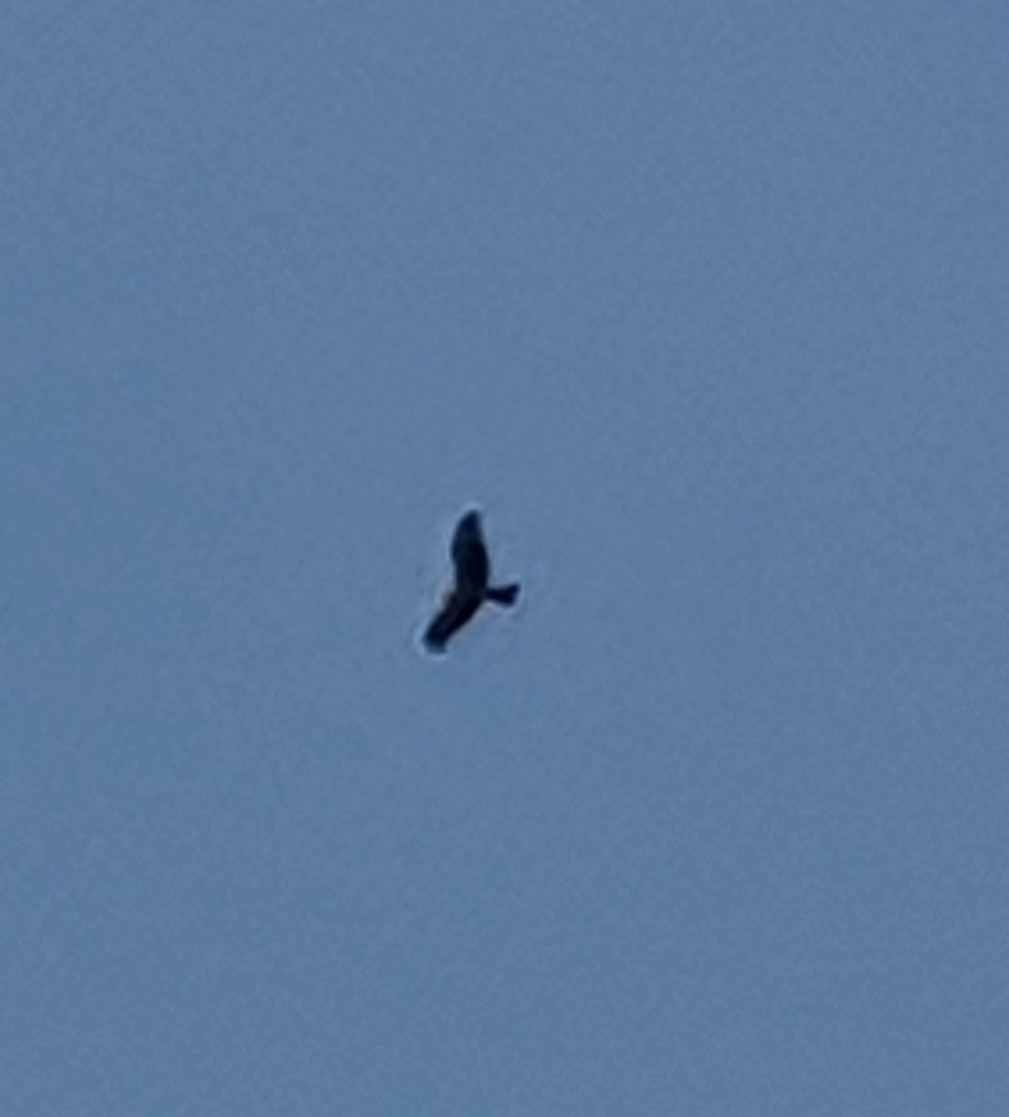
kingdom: Animalia
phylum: Chordata
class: Aves
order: Accipitriformes
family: Accipitridae
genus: Milvus
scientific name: Milvus milvus
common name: Red kite
